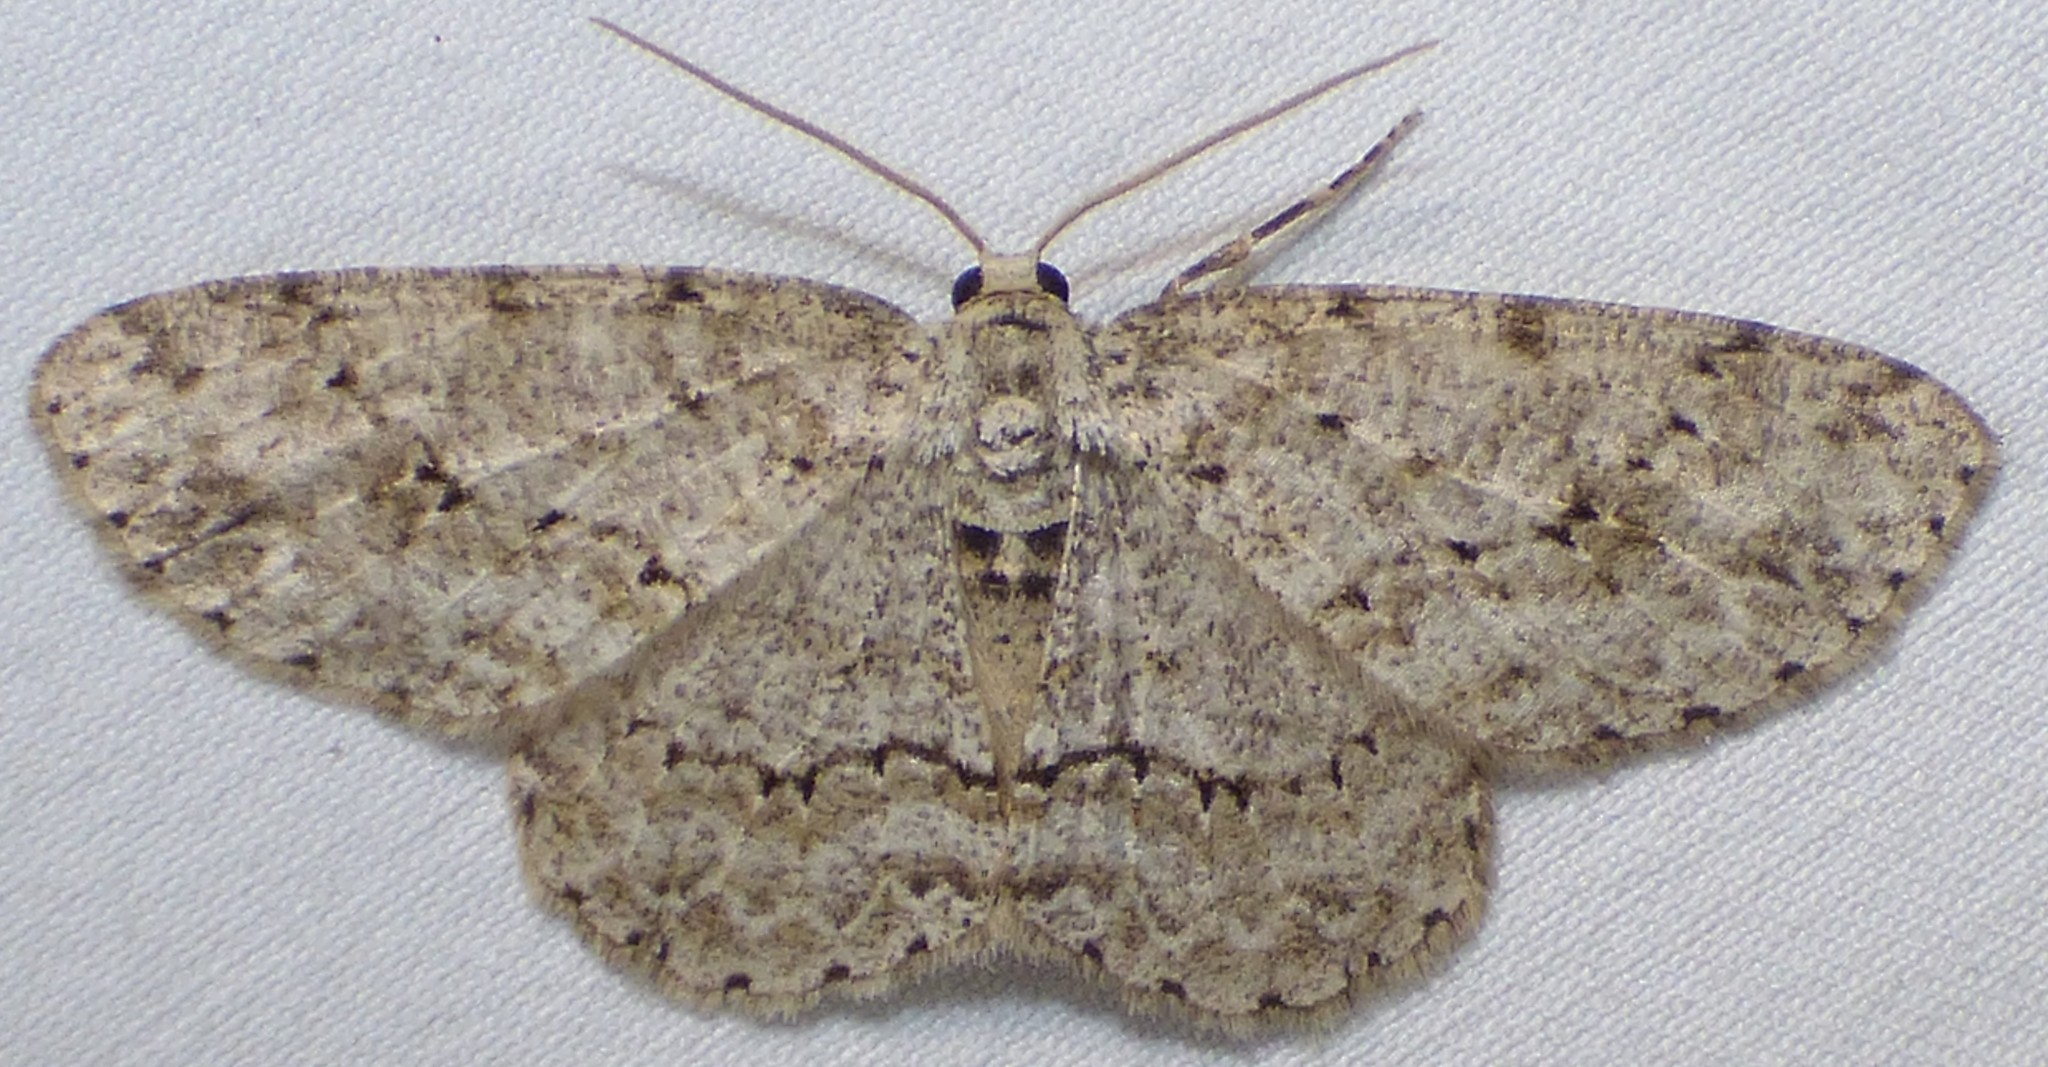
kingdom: Animalia
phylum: Arthropoda
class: Insecta
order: Lepidoptera
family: Geometridae
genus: Ectropis
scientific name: Ectropis crepuscularia
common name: Engrailed
